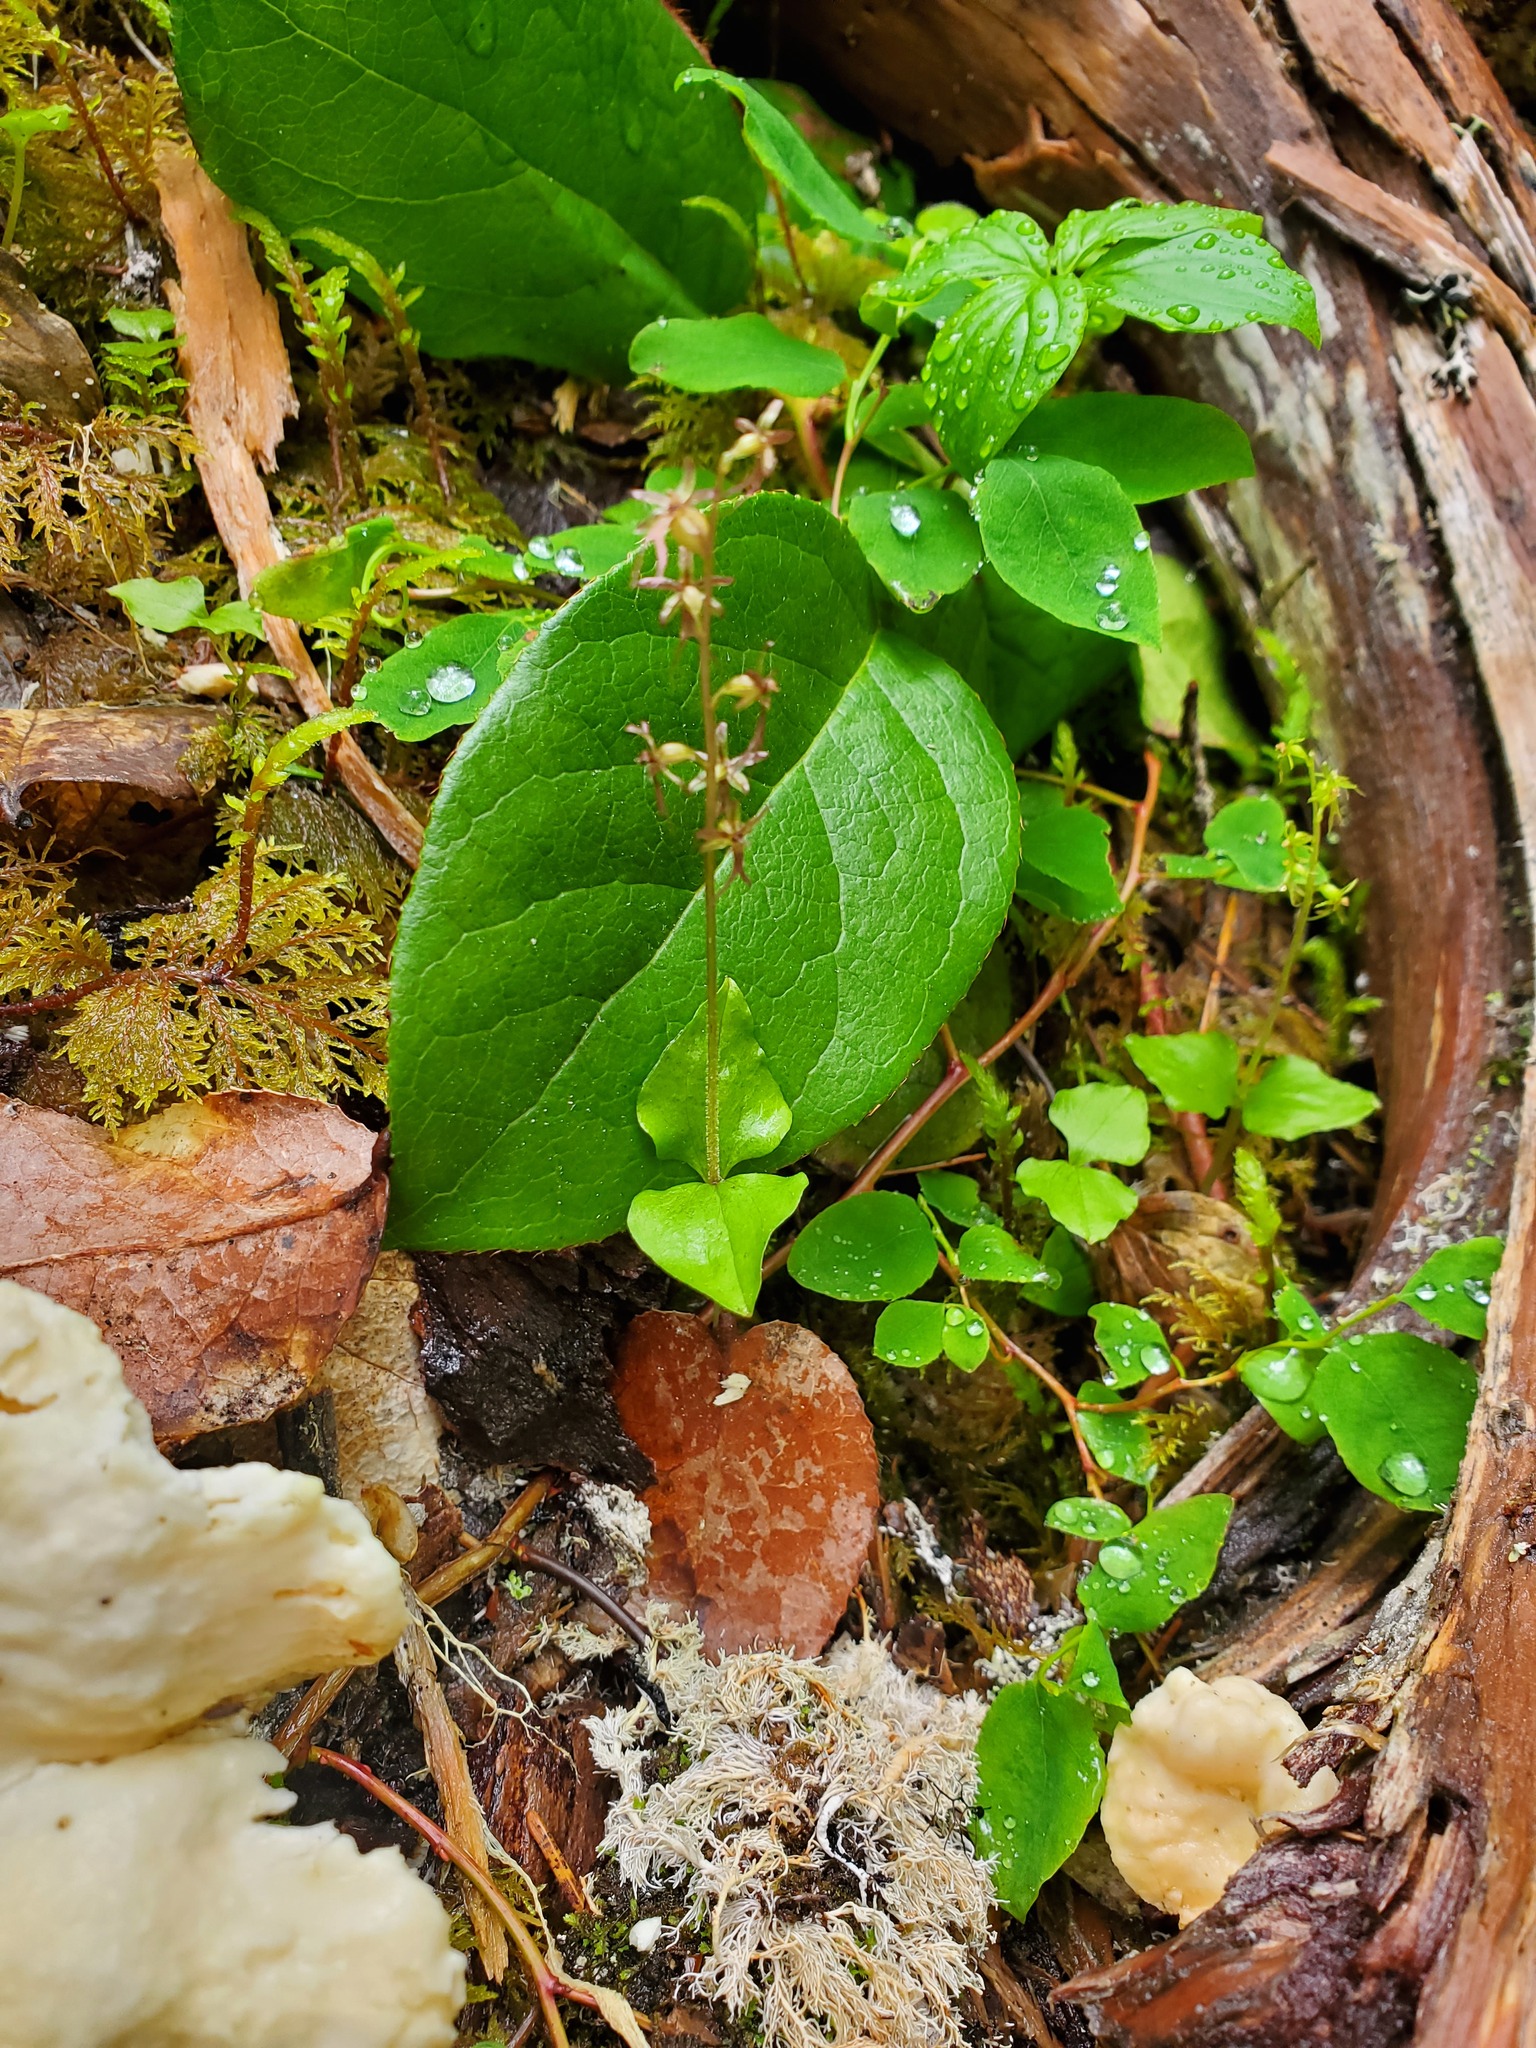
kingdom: Plantae
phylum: Tracheophyta
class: Liliopsida
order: Asparagales
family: Orchidaceae
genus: Neottia
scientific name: Neottia cordata
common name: Lesser twayblade
